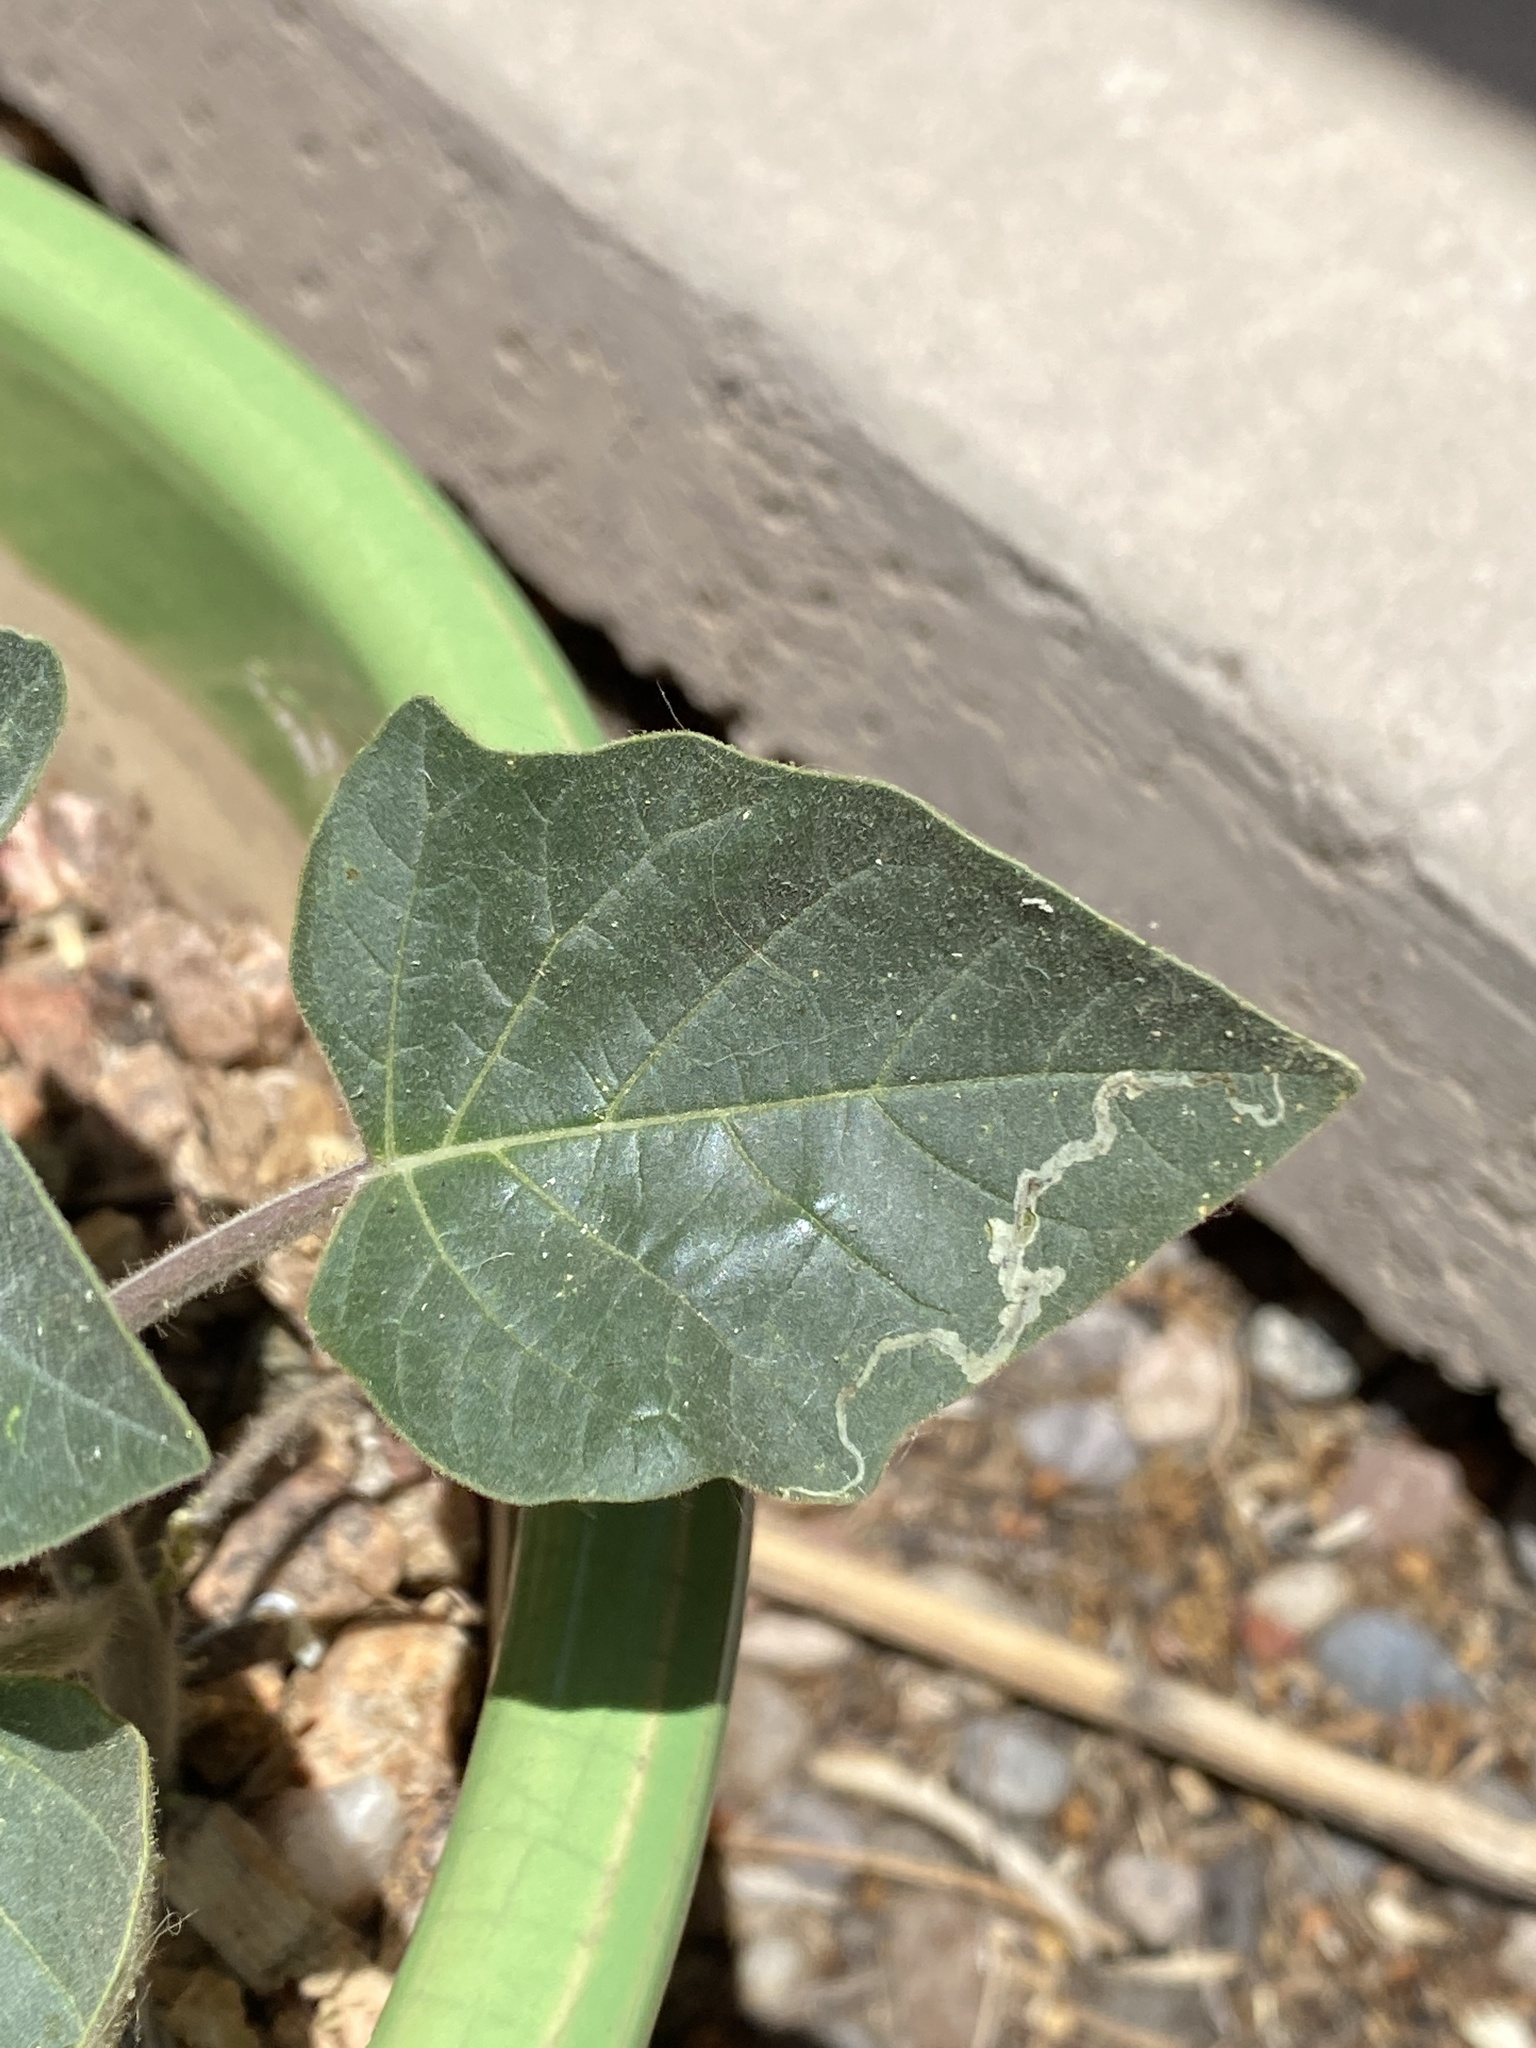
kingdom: Animalia
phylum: Arthropoda
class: Insecta
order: Diptera
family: Agromyzidae
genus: Liriomyza
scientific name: Liriomyza
